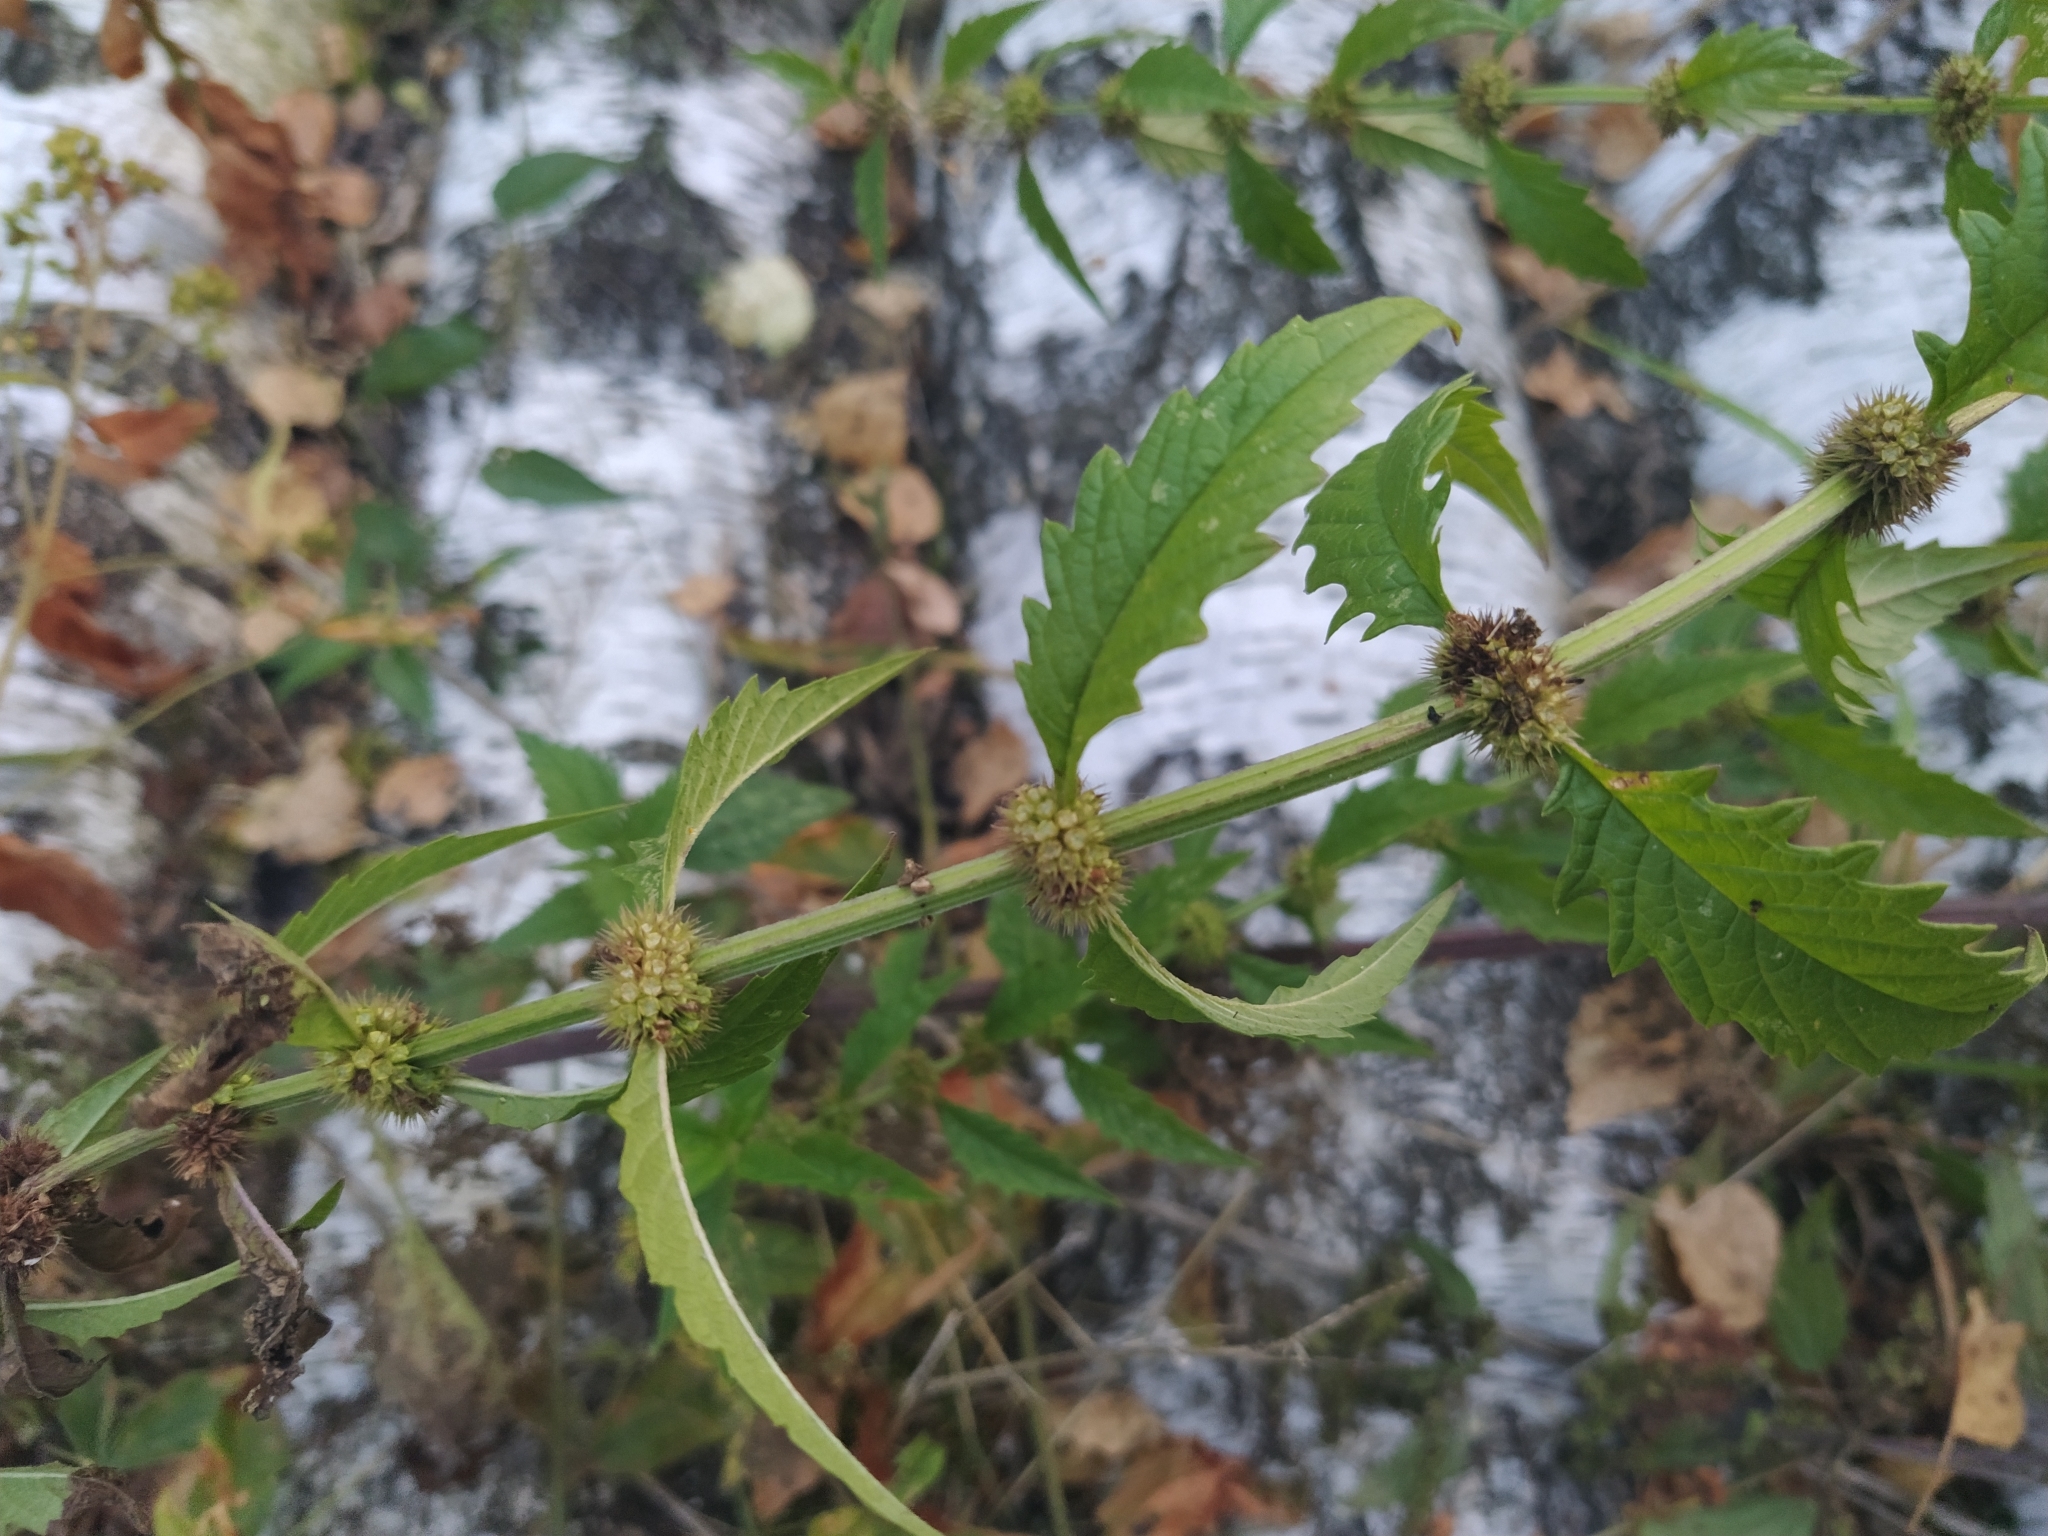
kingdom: Plantae
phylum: Tracheophyta
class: Magnoliopsida
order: Lamiales
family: Lamiaceae
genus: Lycopus
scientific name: Lycopus europaeus
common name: European bugleweed
